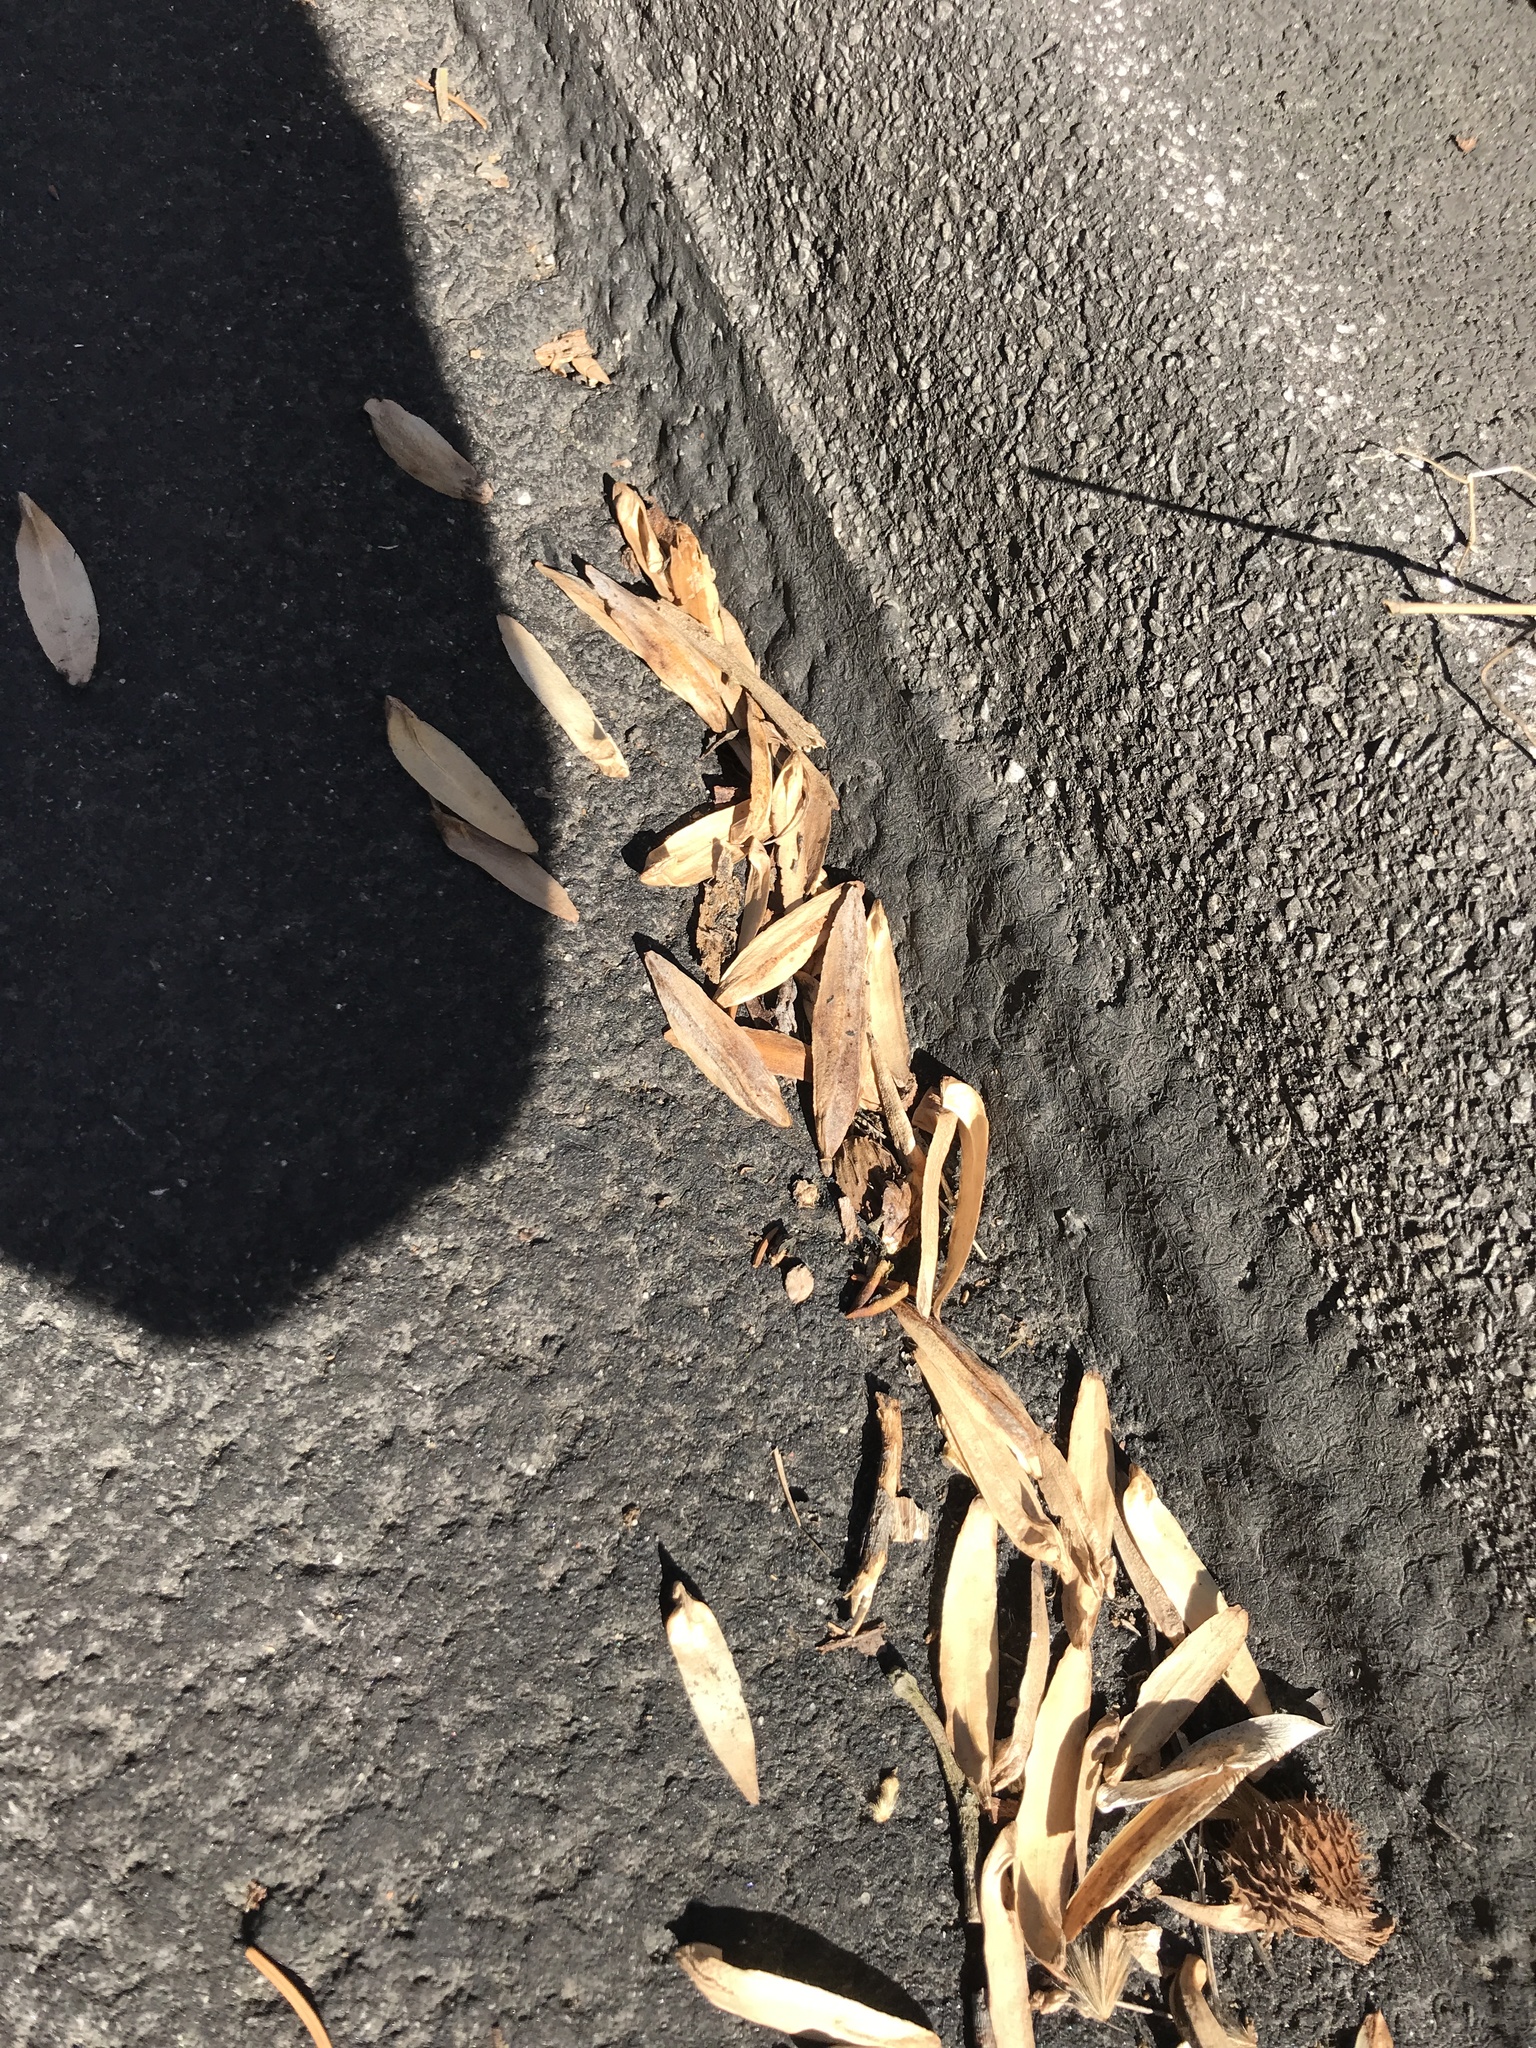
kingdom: Plantae
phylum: Tracheophyta
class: Magnoliopsida
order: Magnoliales
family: Magnoliaceae
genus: Liriodendron
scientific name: Liriodendron tulipifera
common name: Tulip tree
